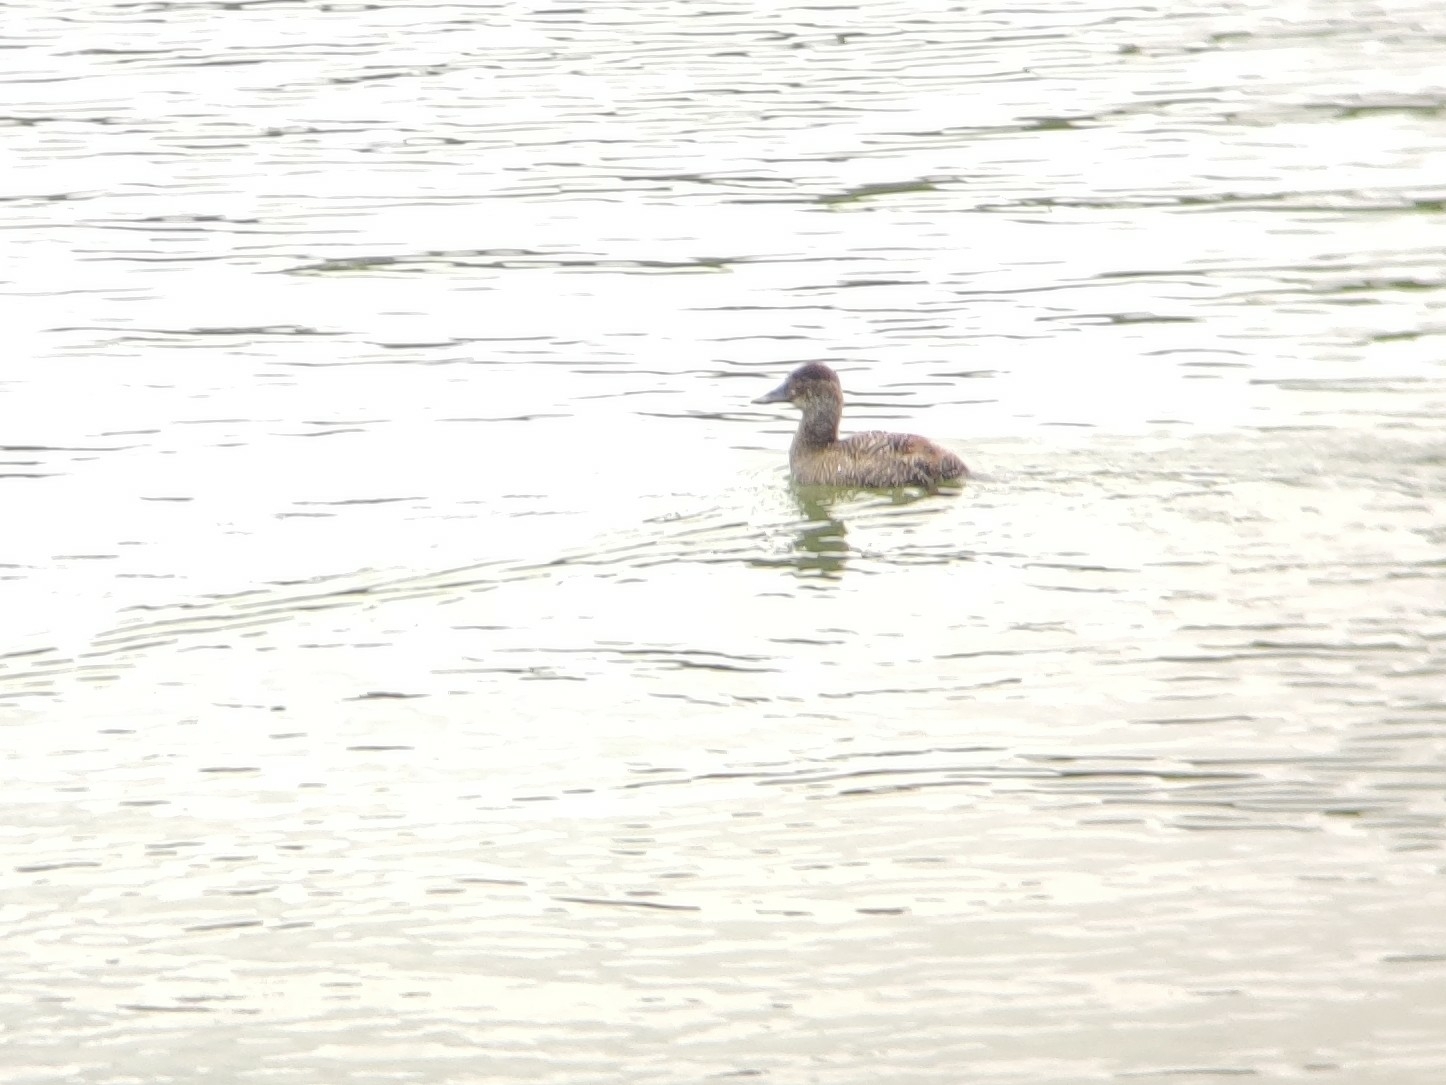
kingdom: Animalia
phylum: Chordata
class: Aves
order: Anseriformes
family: Anatidae
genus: Oxyura
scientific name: Oxyura australis
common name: Blue-billed duck
